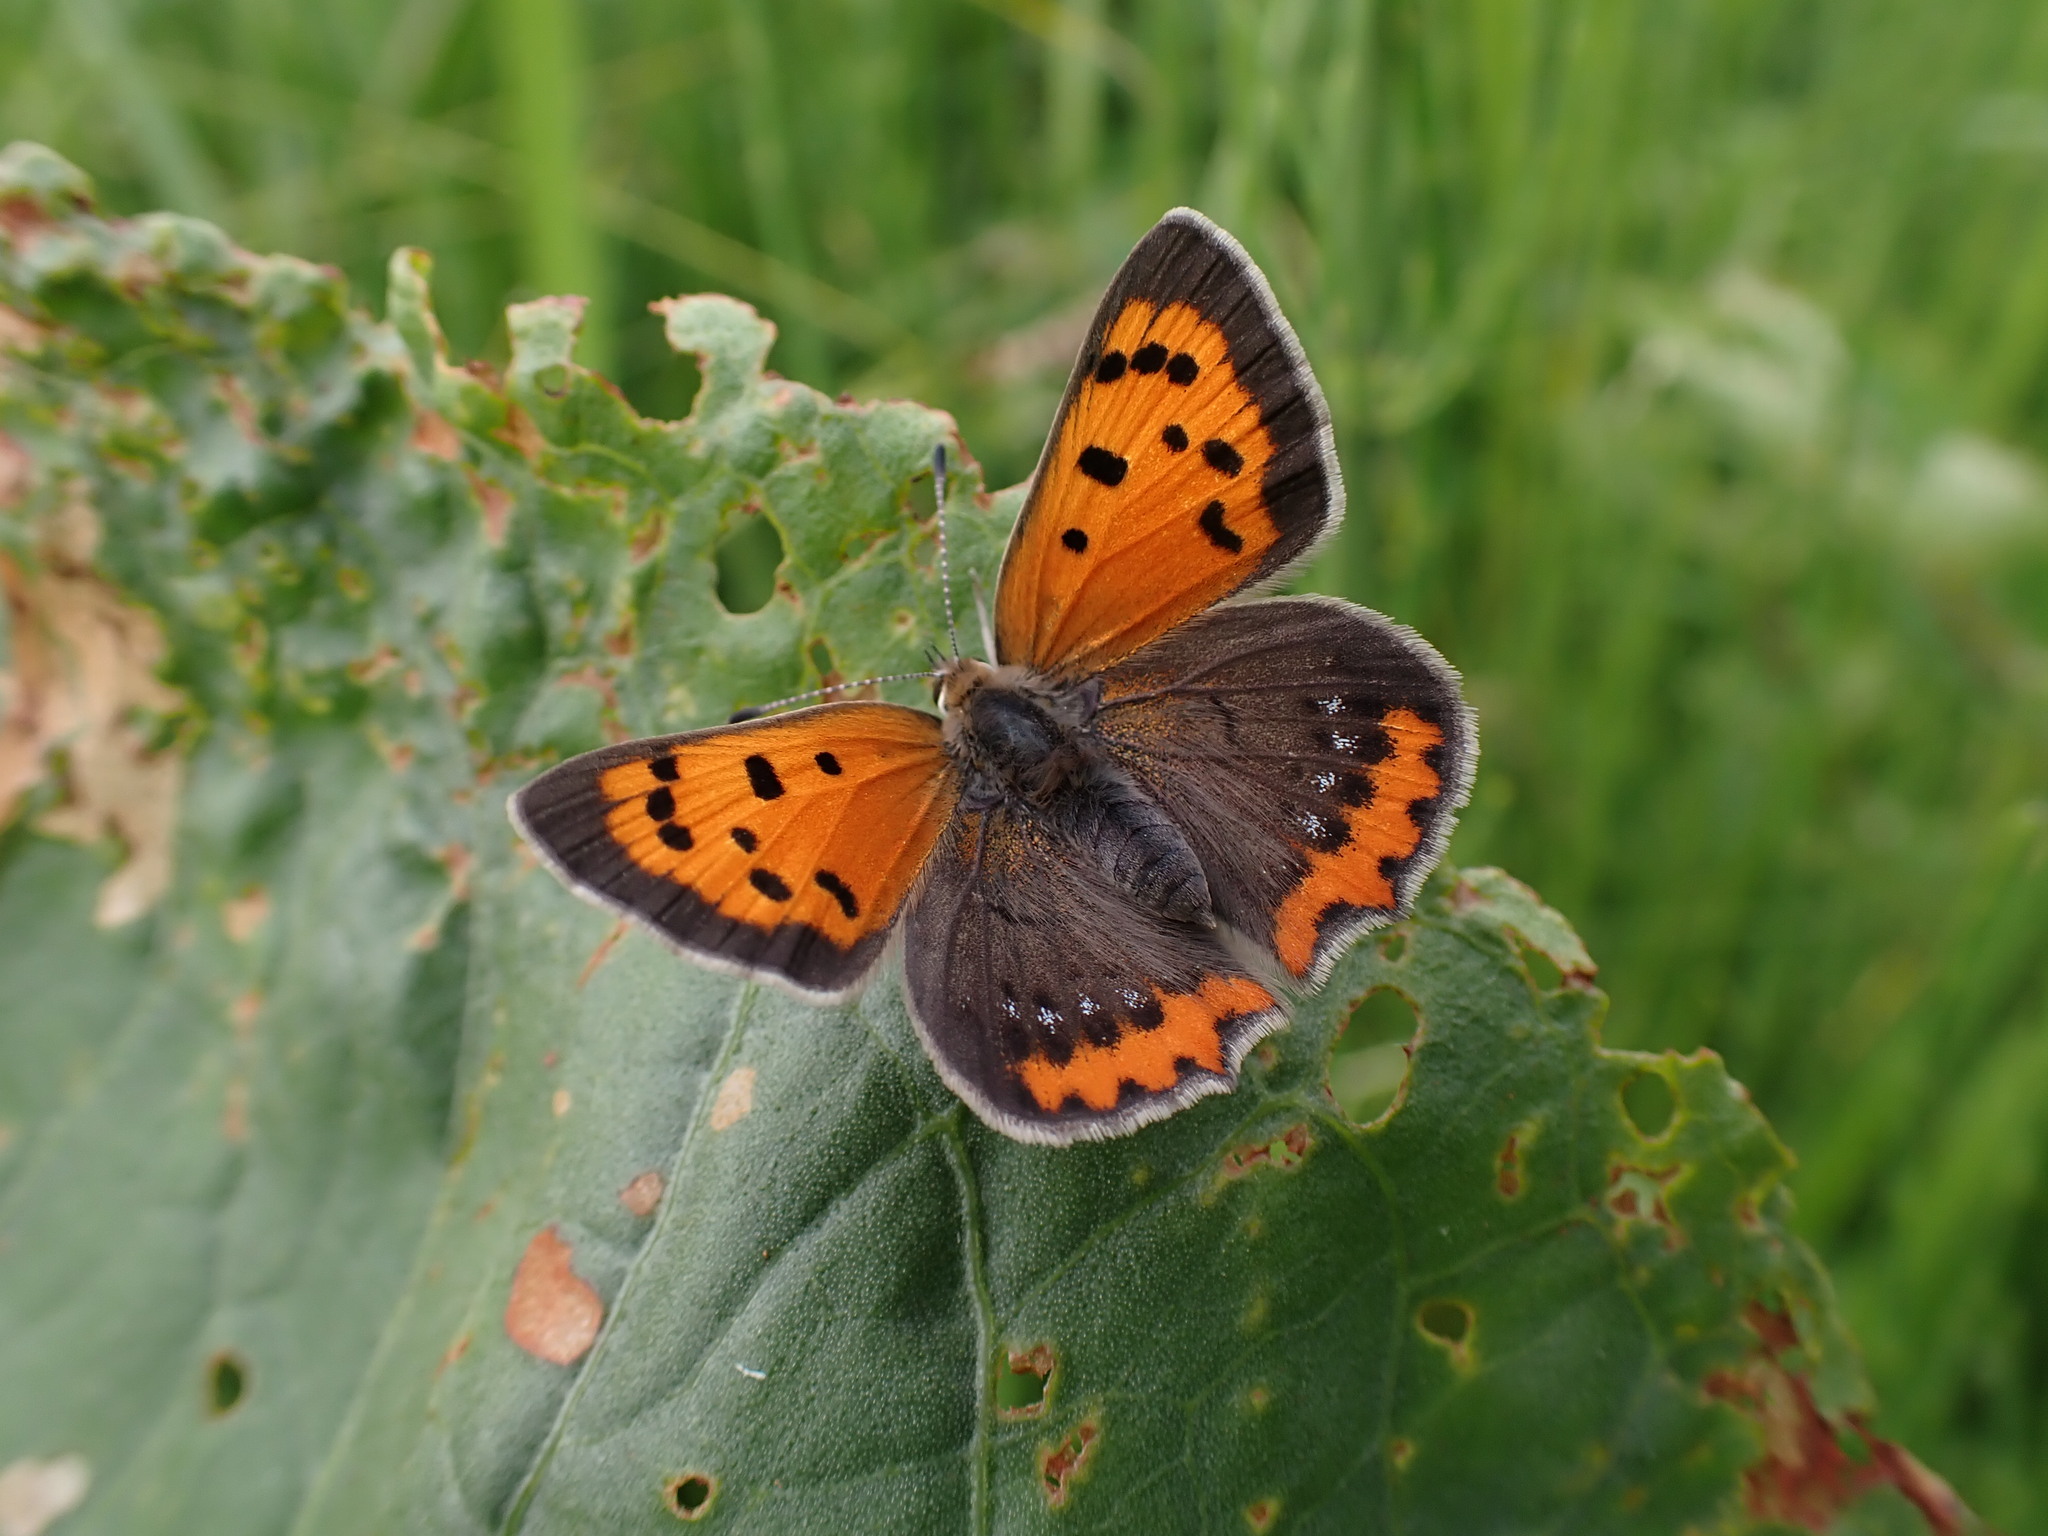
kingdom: Animalia
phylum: Arthropoda
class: Insecta
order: Lepidoptera
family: Lycaenidae
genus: Lycaena
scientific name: Lycaena phlaeas
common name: Small copper
